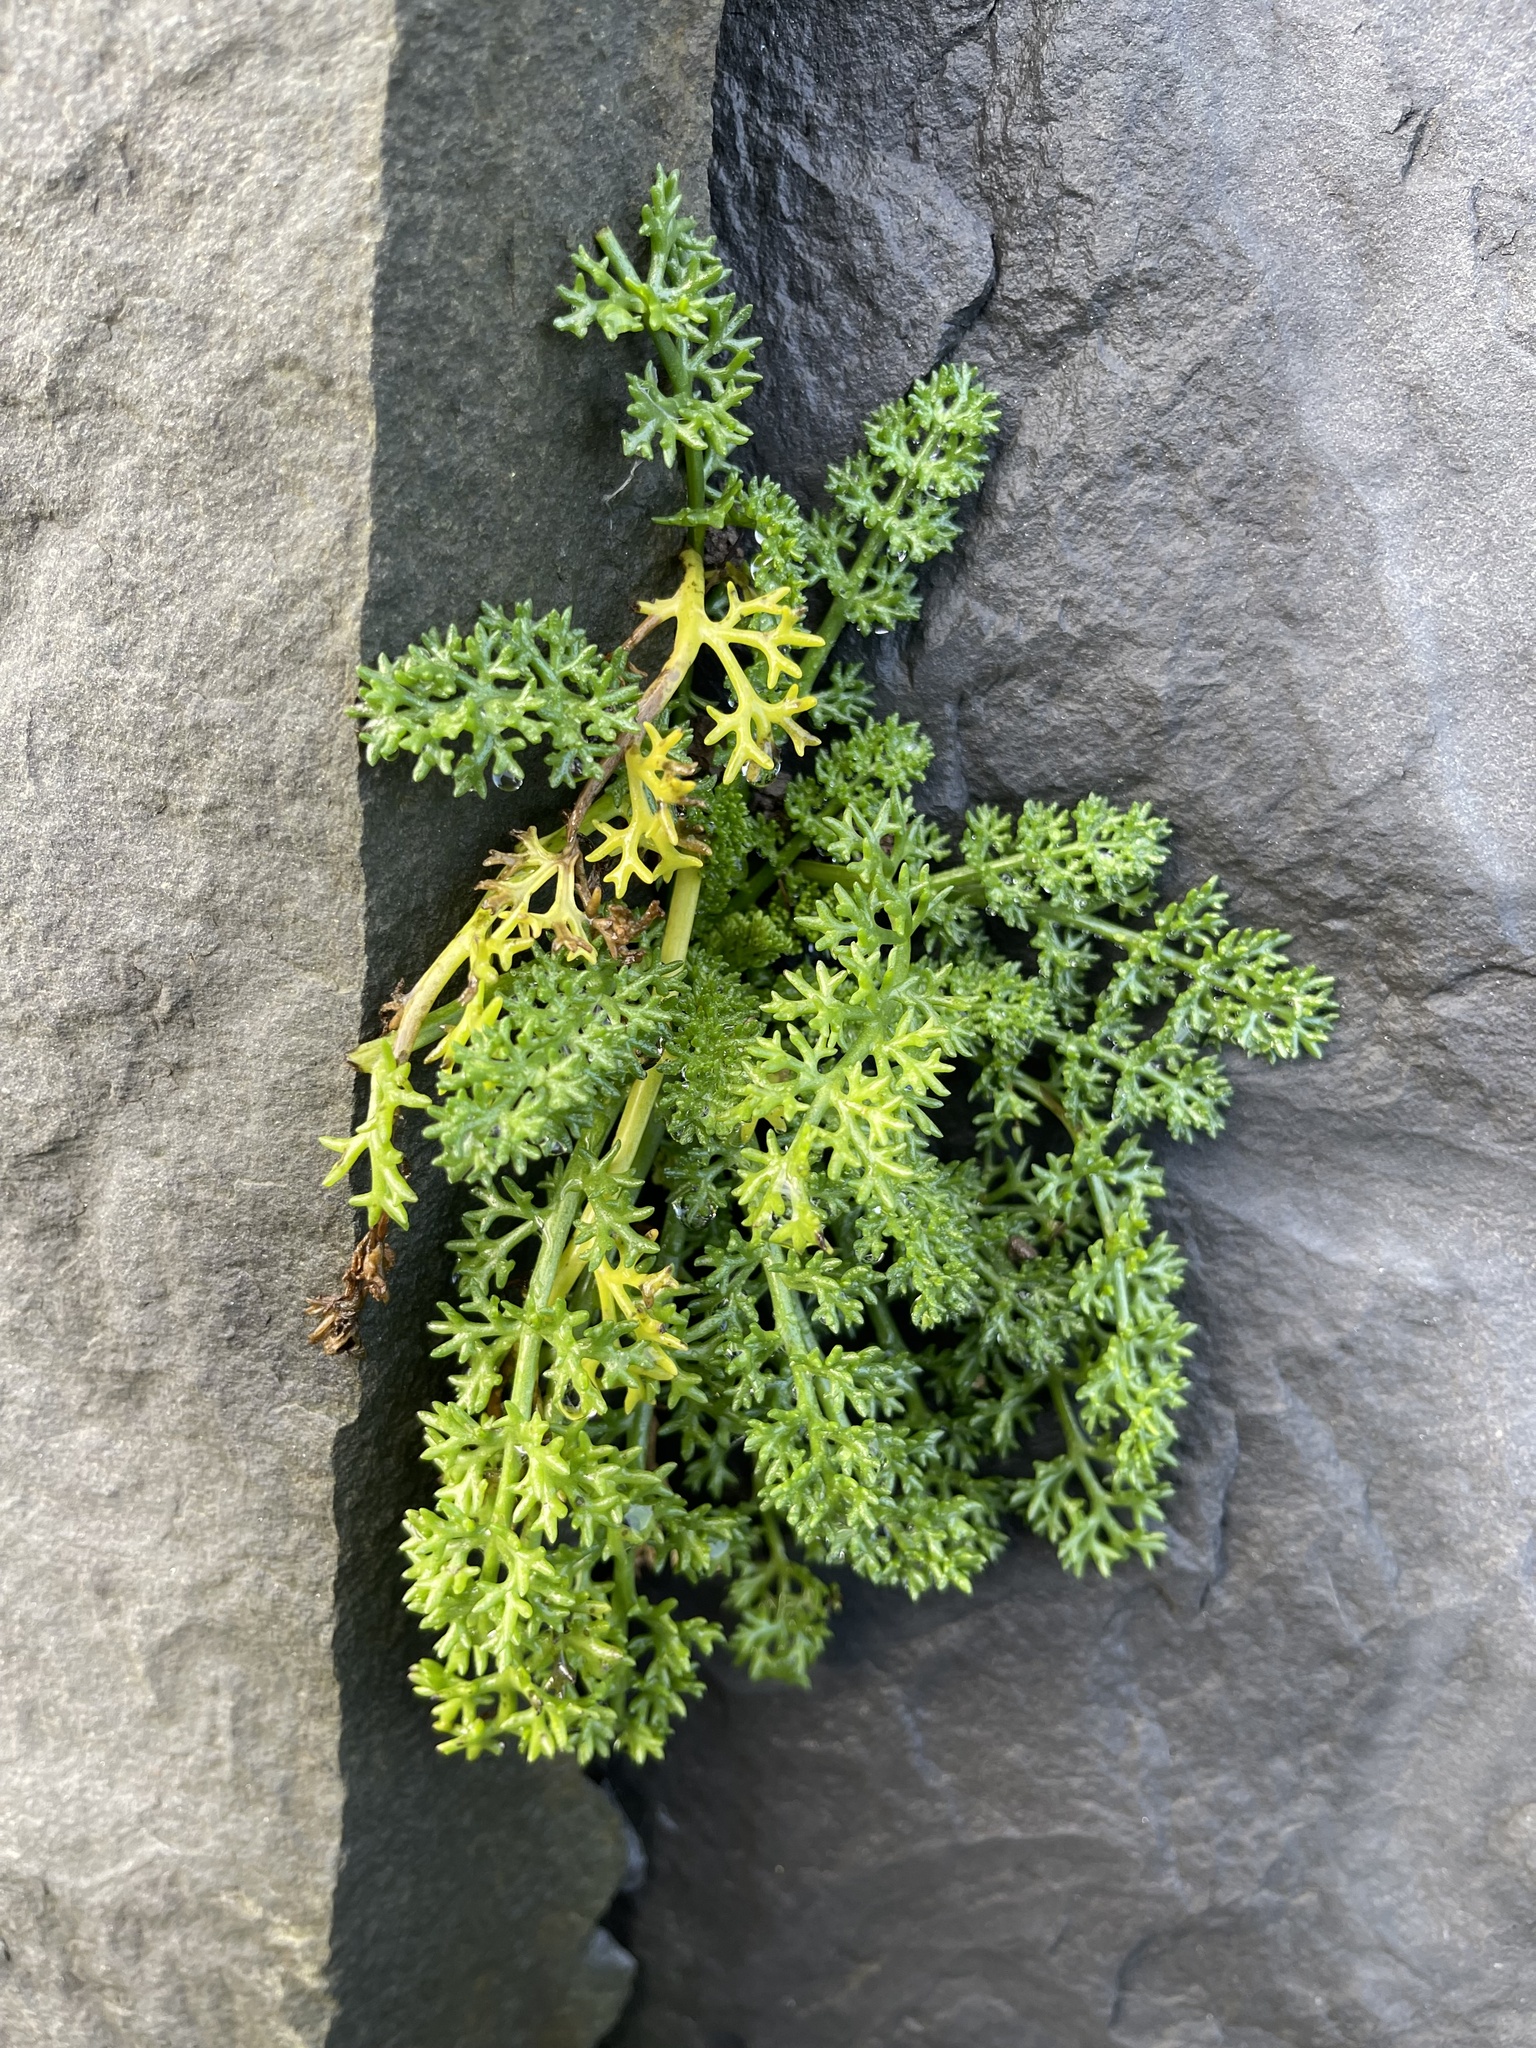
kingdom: Plantae
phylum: Tracheophyta
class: Magnoliopsida
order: Asterales
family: Asteraceae
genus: Tripleurospermum
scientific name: Tripleurospermum maritimum
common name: Sea mayweed
